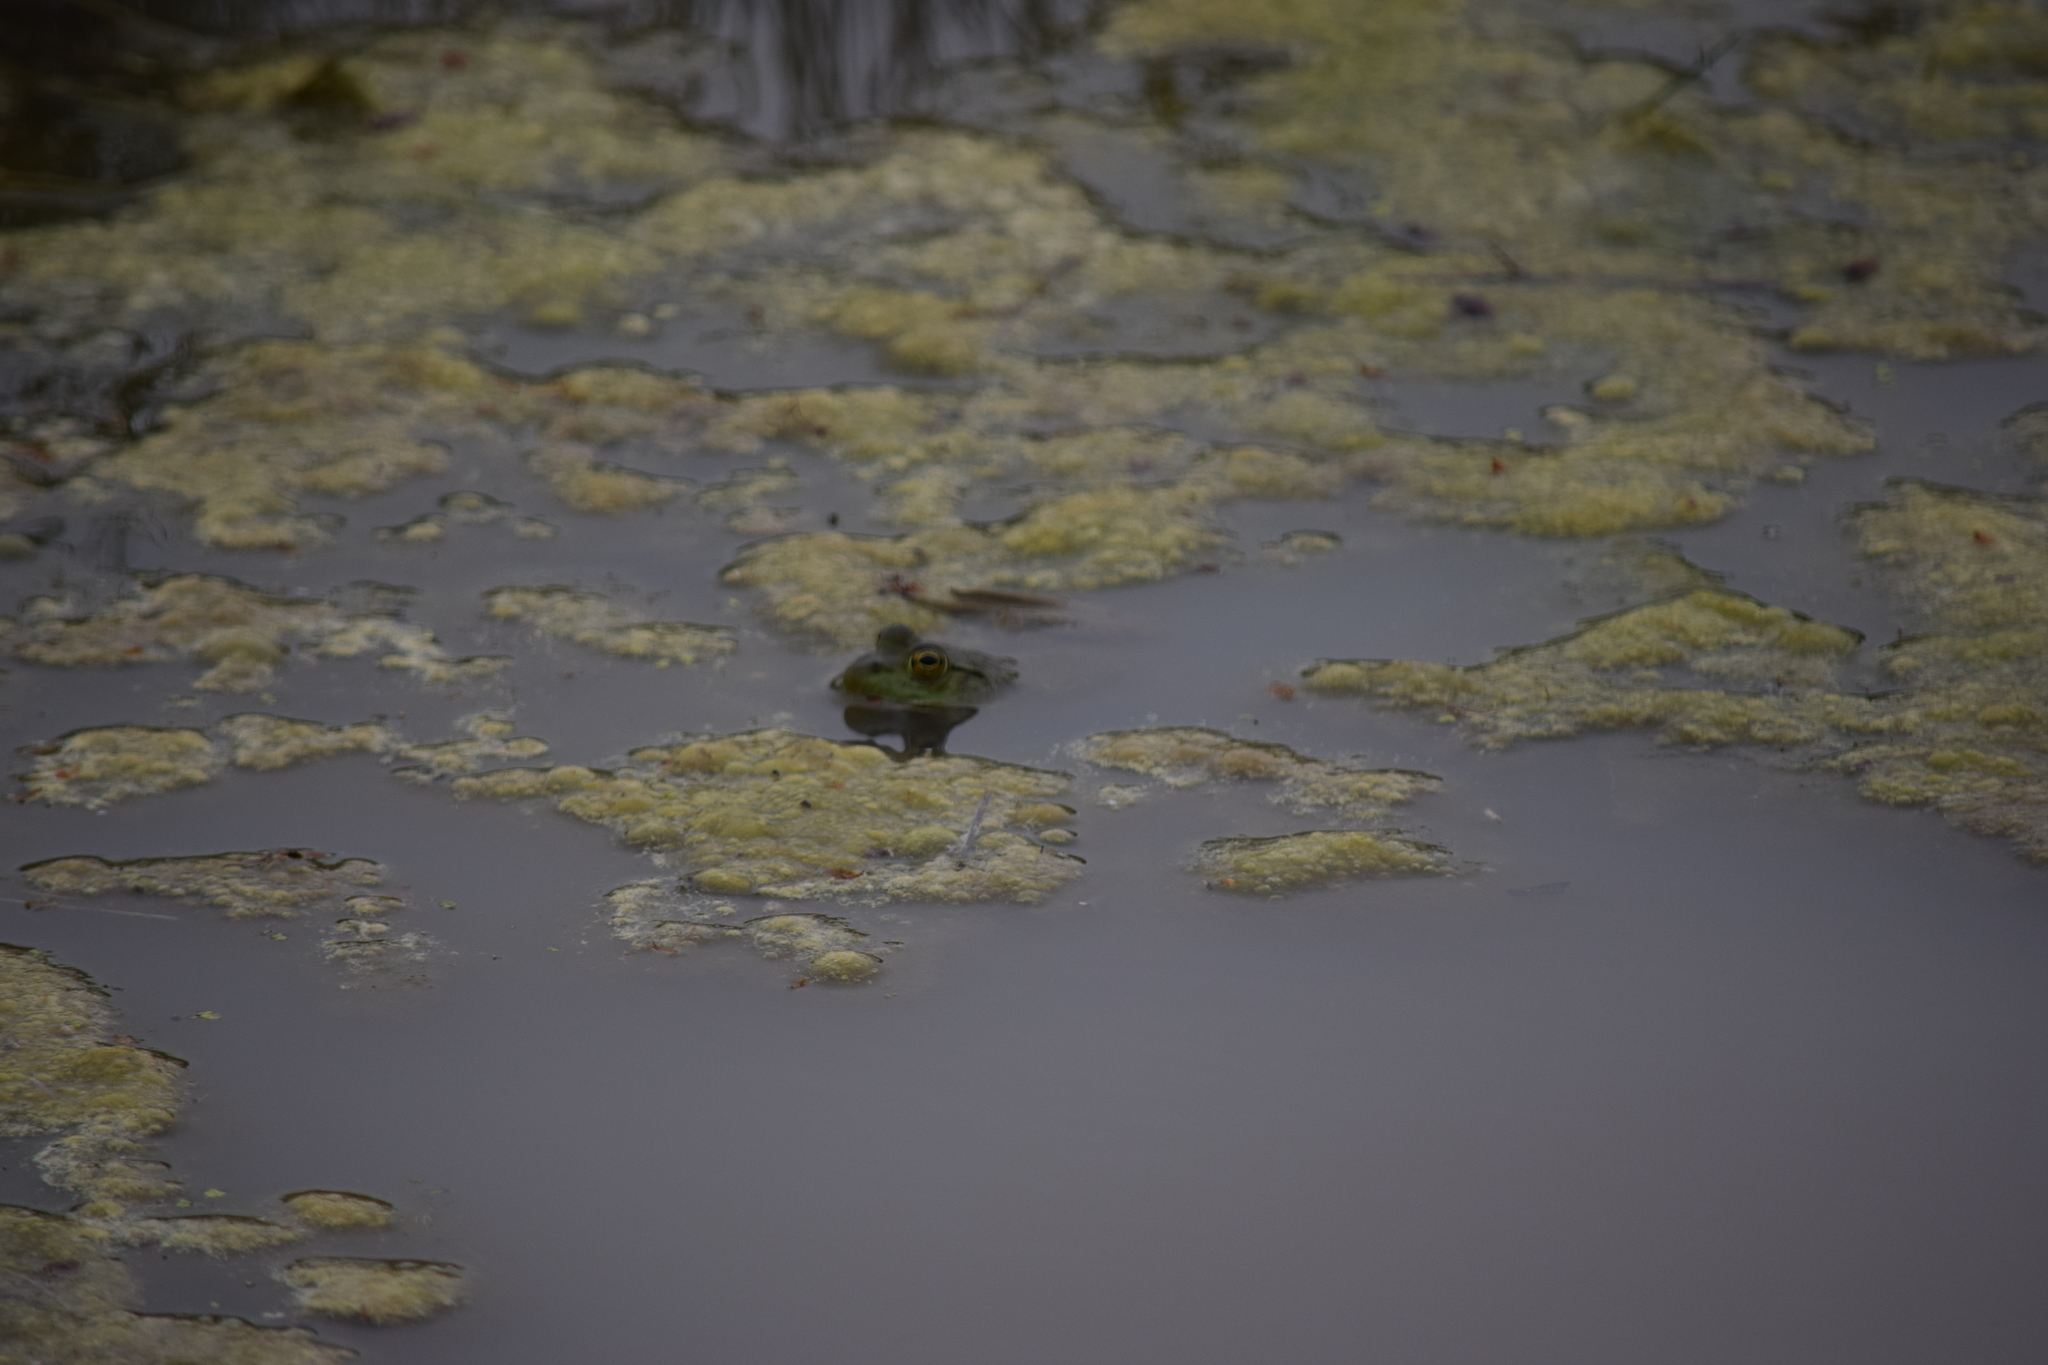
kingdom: Animalia
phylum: Chordata
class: Amphibia
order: Anura
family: Ranidae
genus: Lithobates
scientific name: Lithobates catesbeianus
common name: American bullfrog
